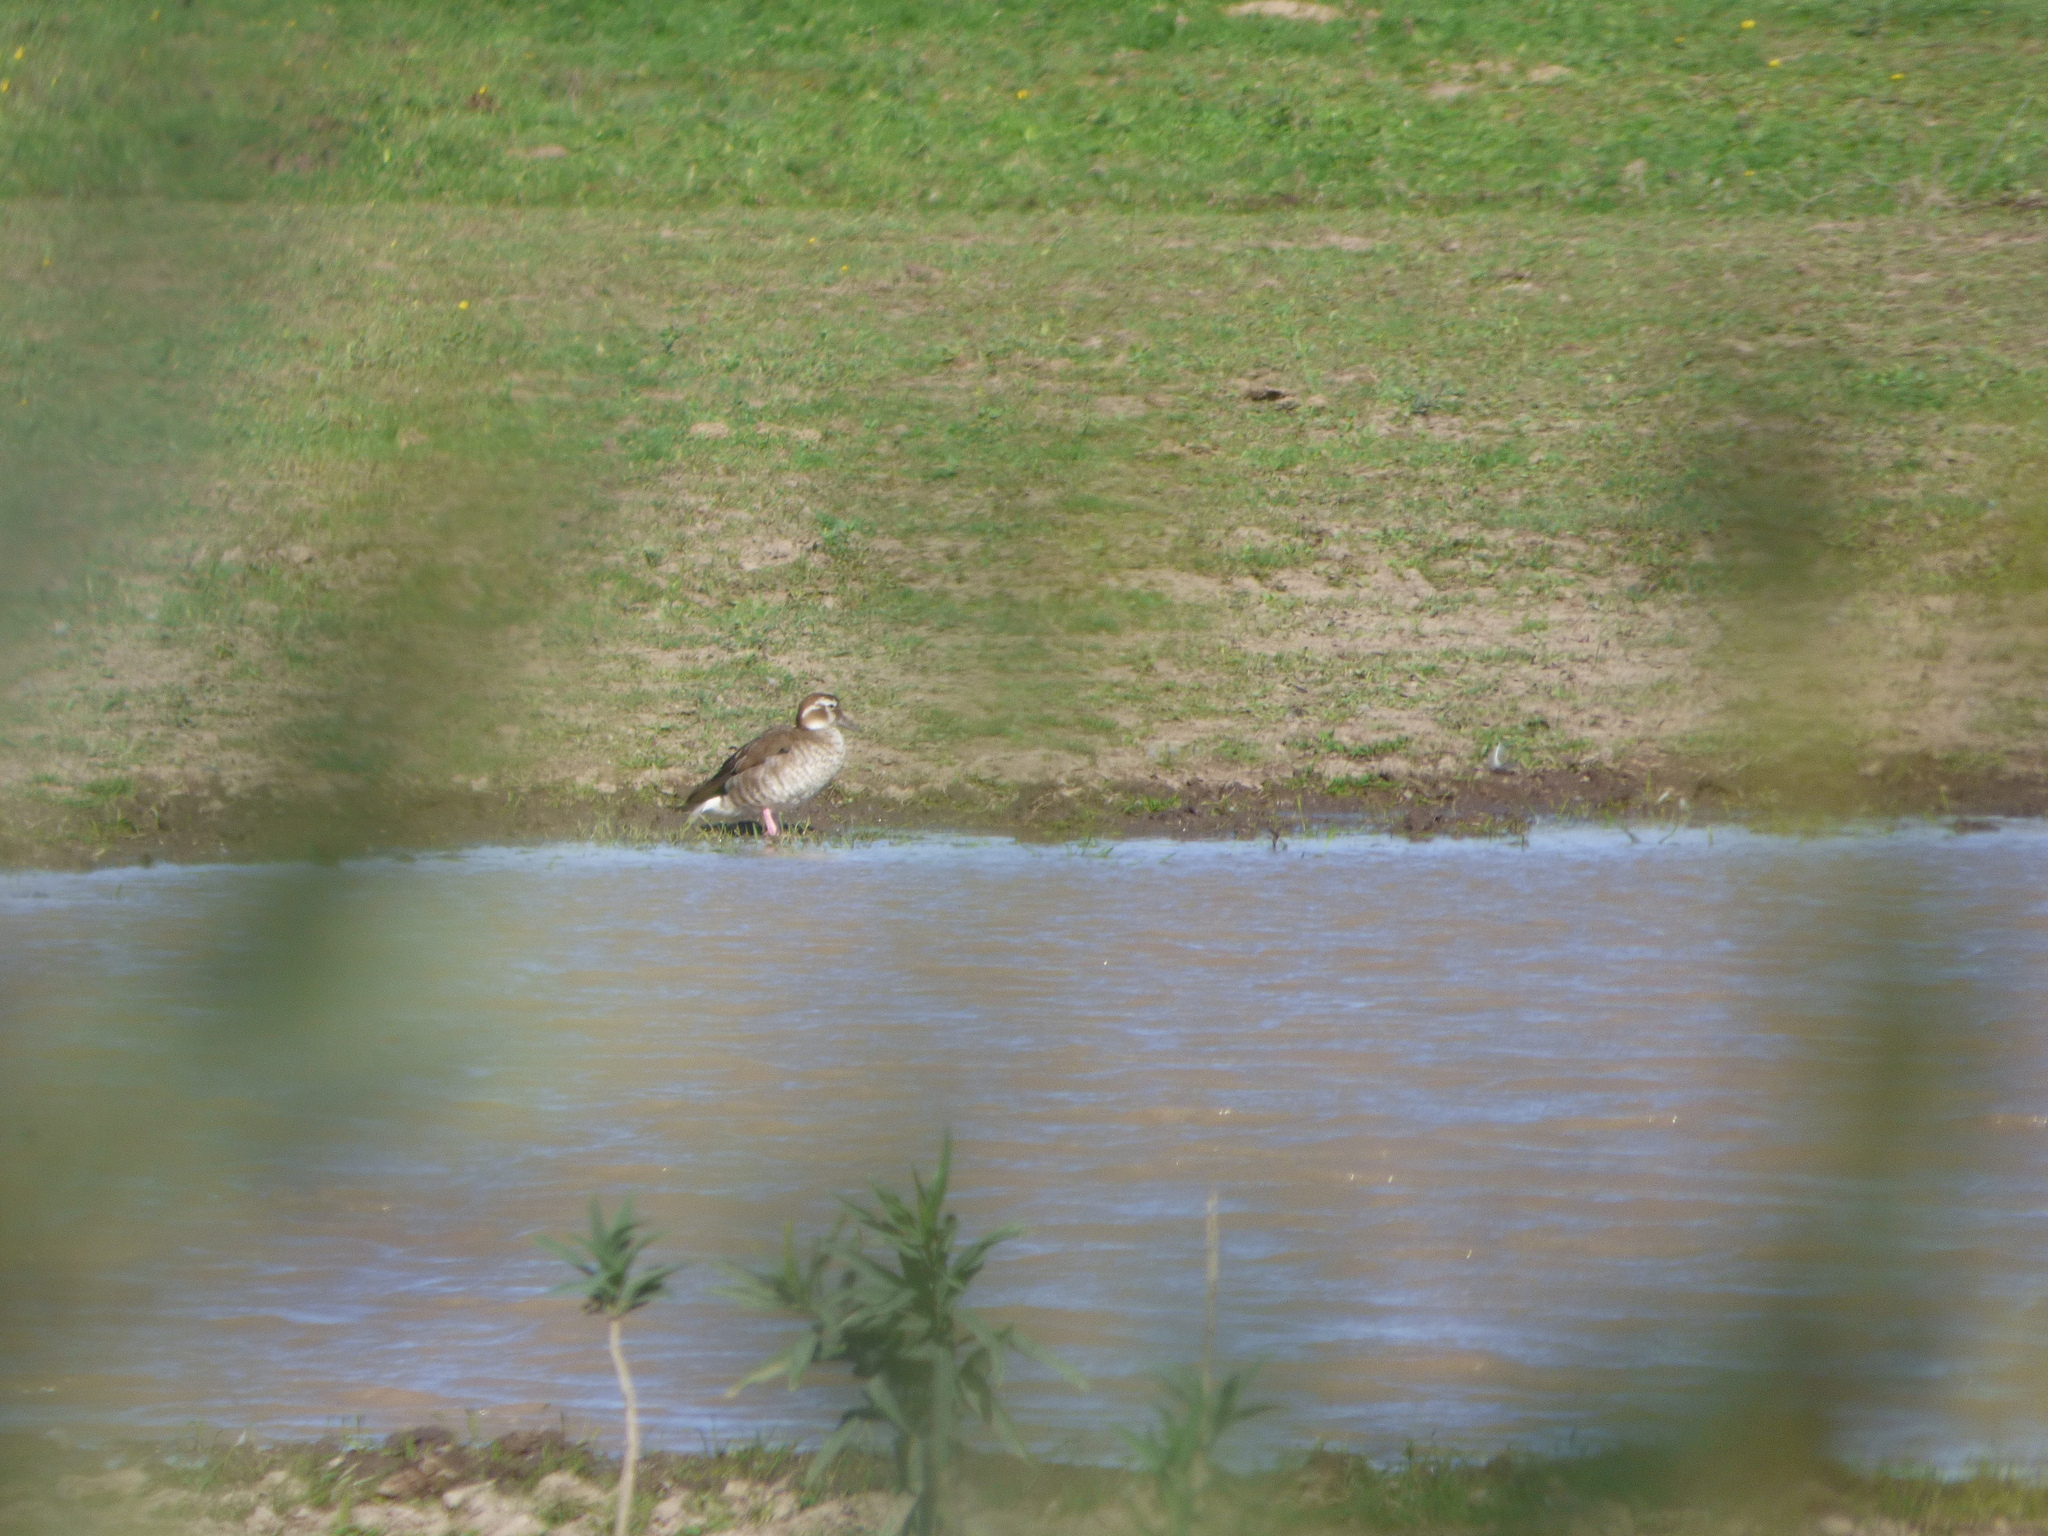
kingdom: Animalia
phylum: Chordata
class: Aves
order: Anseriformes
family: Anatidae
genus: Callonetta
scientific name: Callonetta leucophrys
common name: Ringed teal
